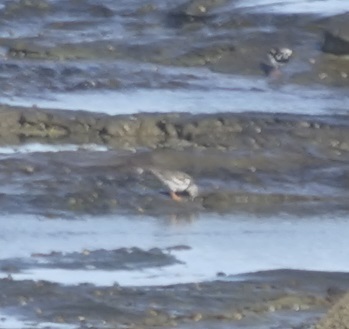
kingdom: Animalia
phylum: Chordata
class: Aves
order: Charadriiformes
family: Scolopacidae
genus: Arenaria
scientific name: Arenaria interpres
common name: Ruddy turnstone
